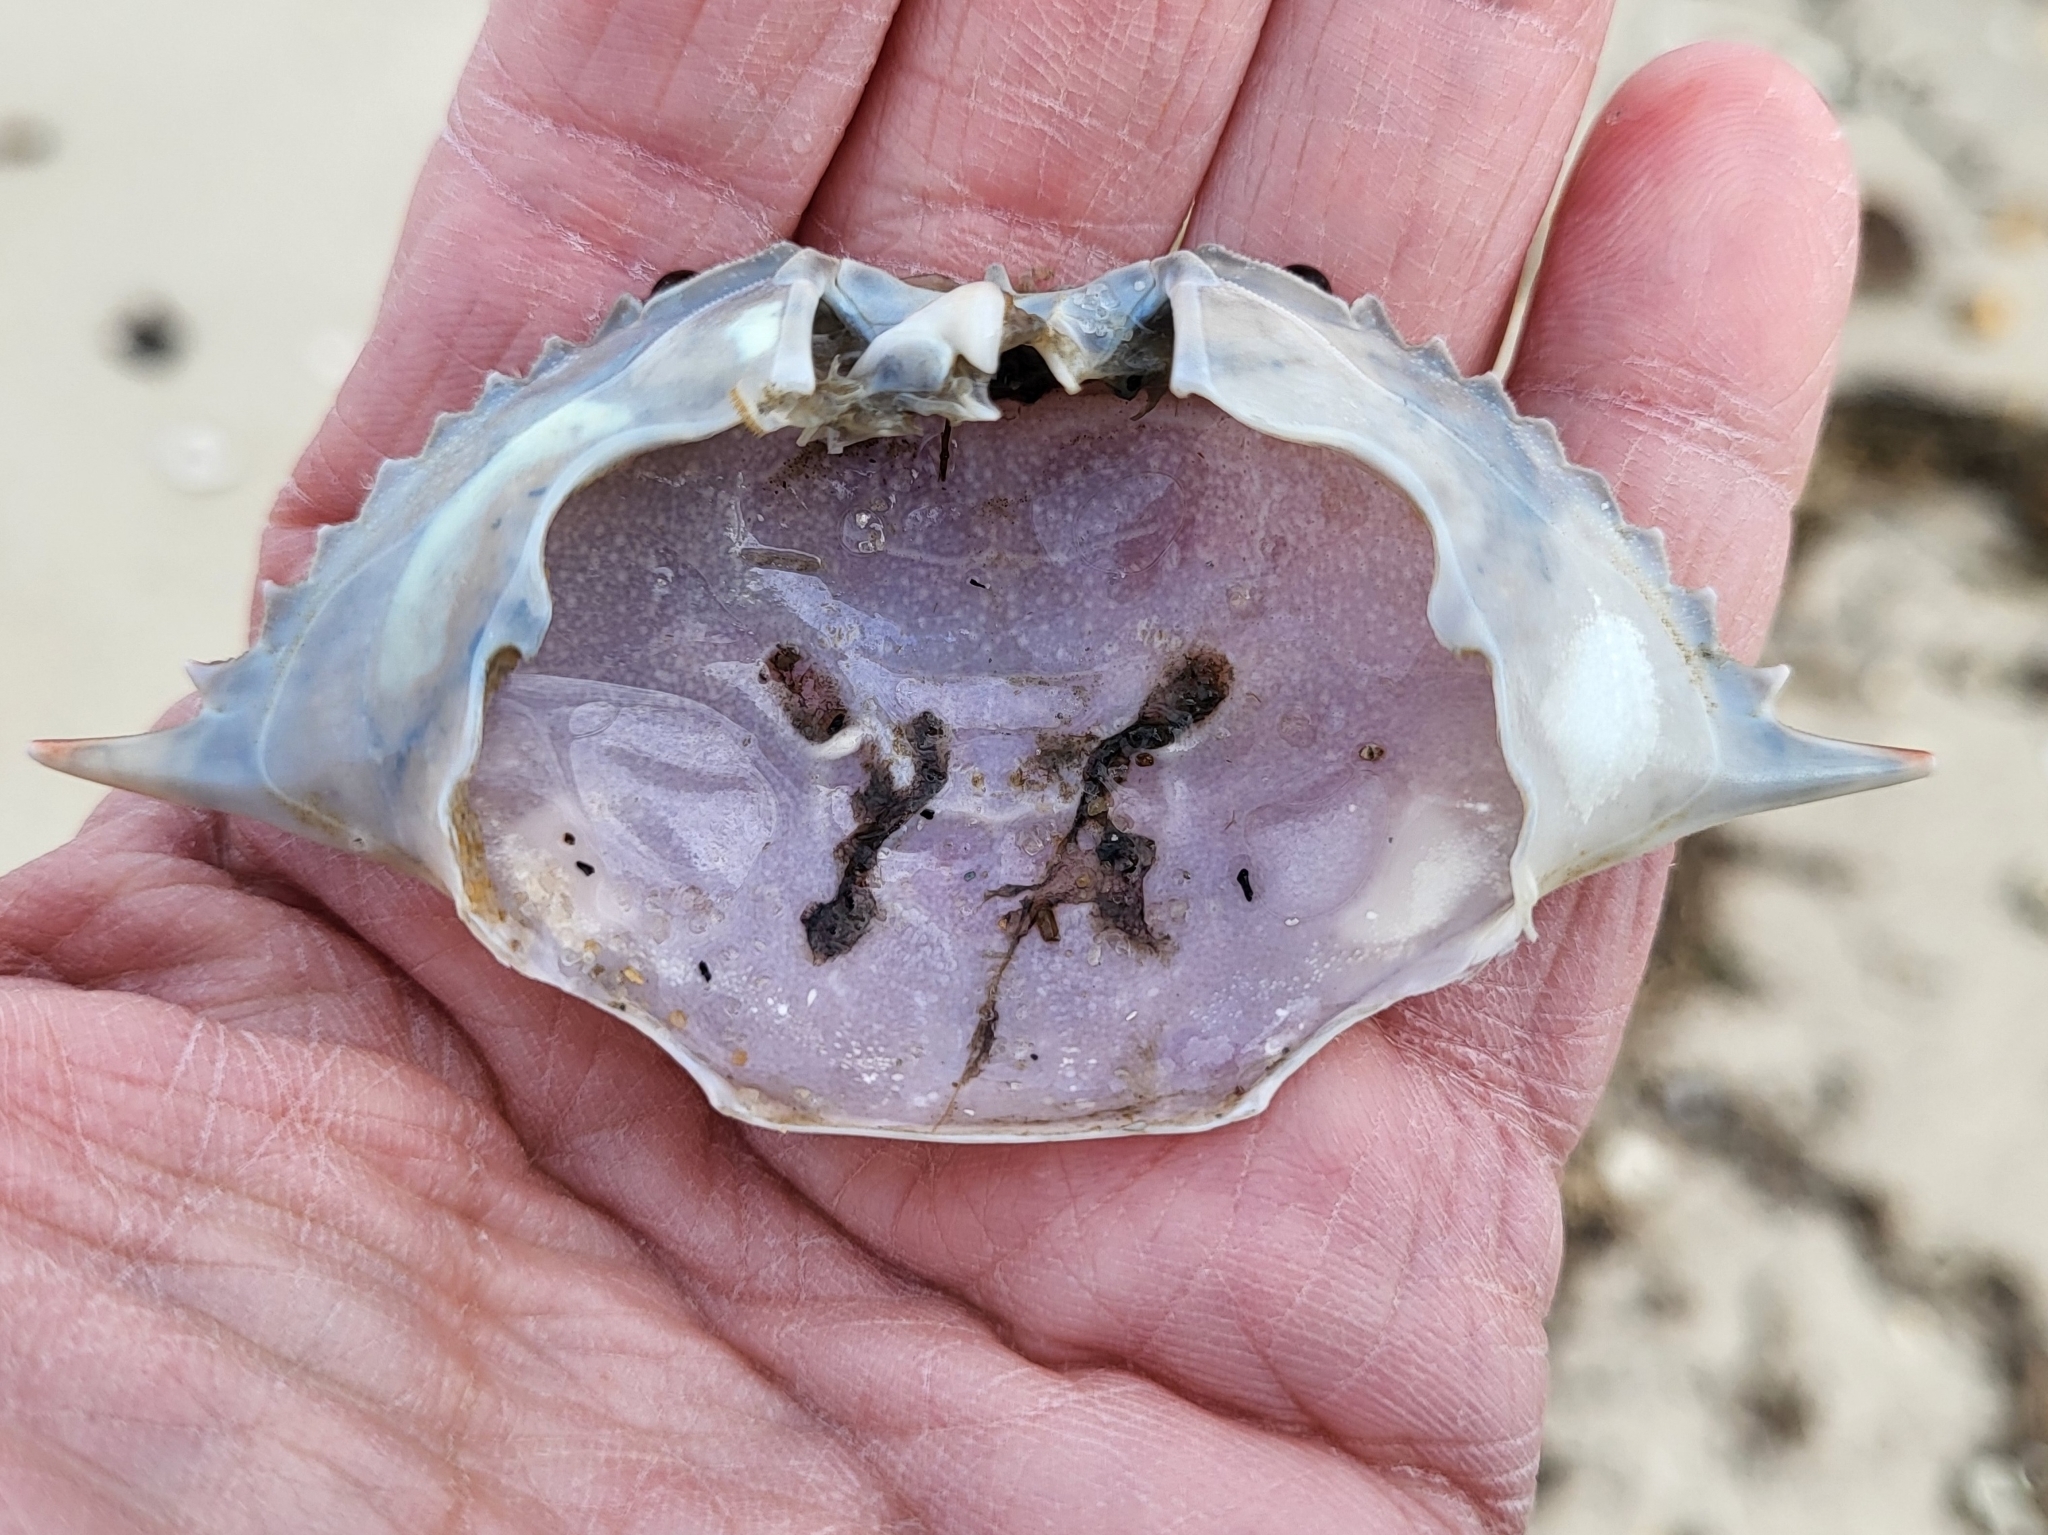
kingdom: Animalia
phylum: Arthropoda
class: Malacostraca
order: Decapoda
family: Portunidae
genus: Callinectes
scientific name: Callinectes sapidus
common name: Blue crab
